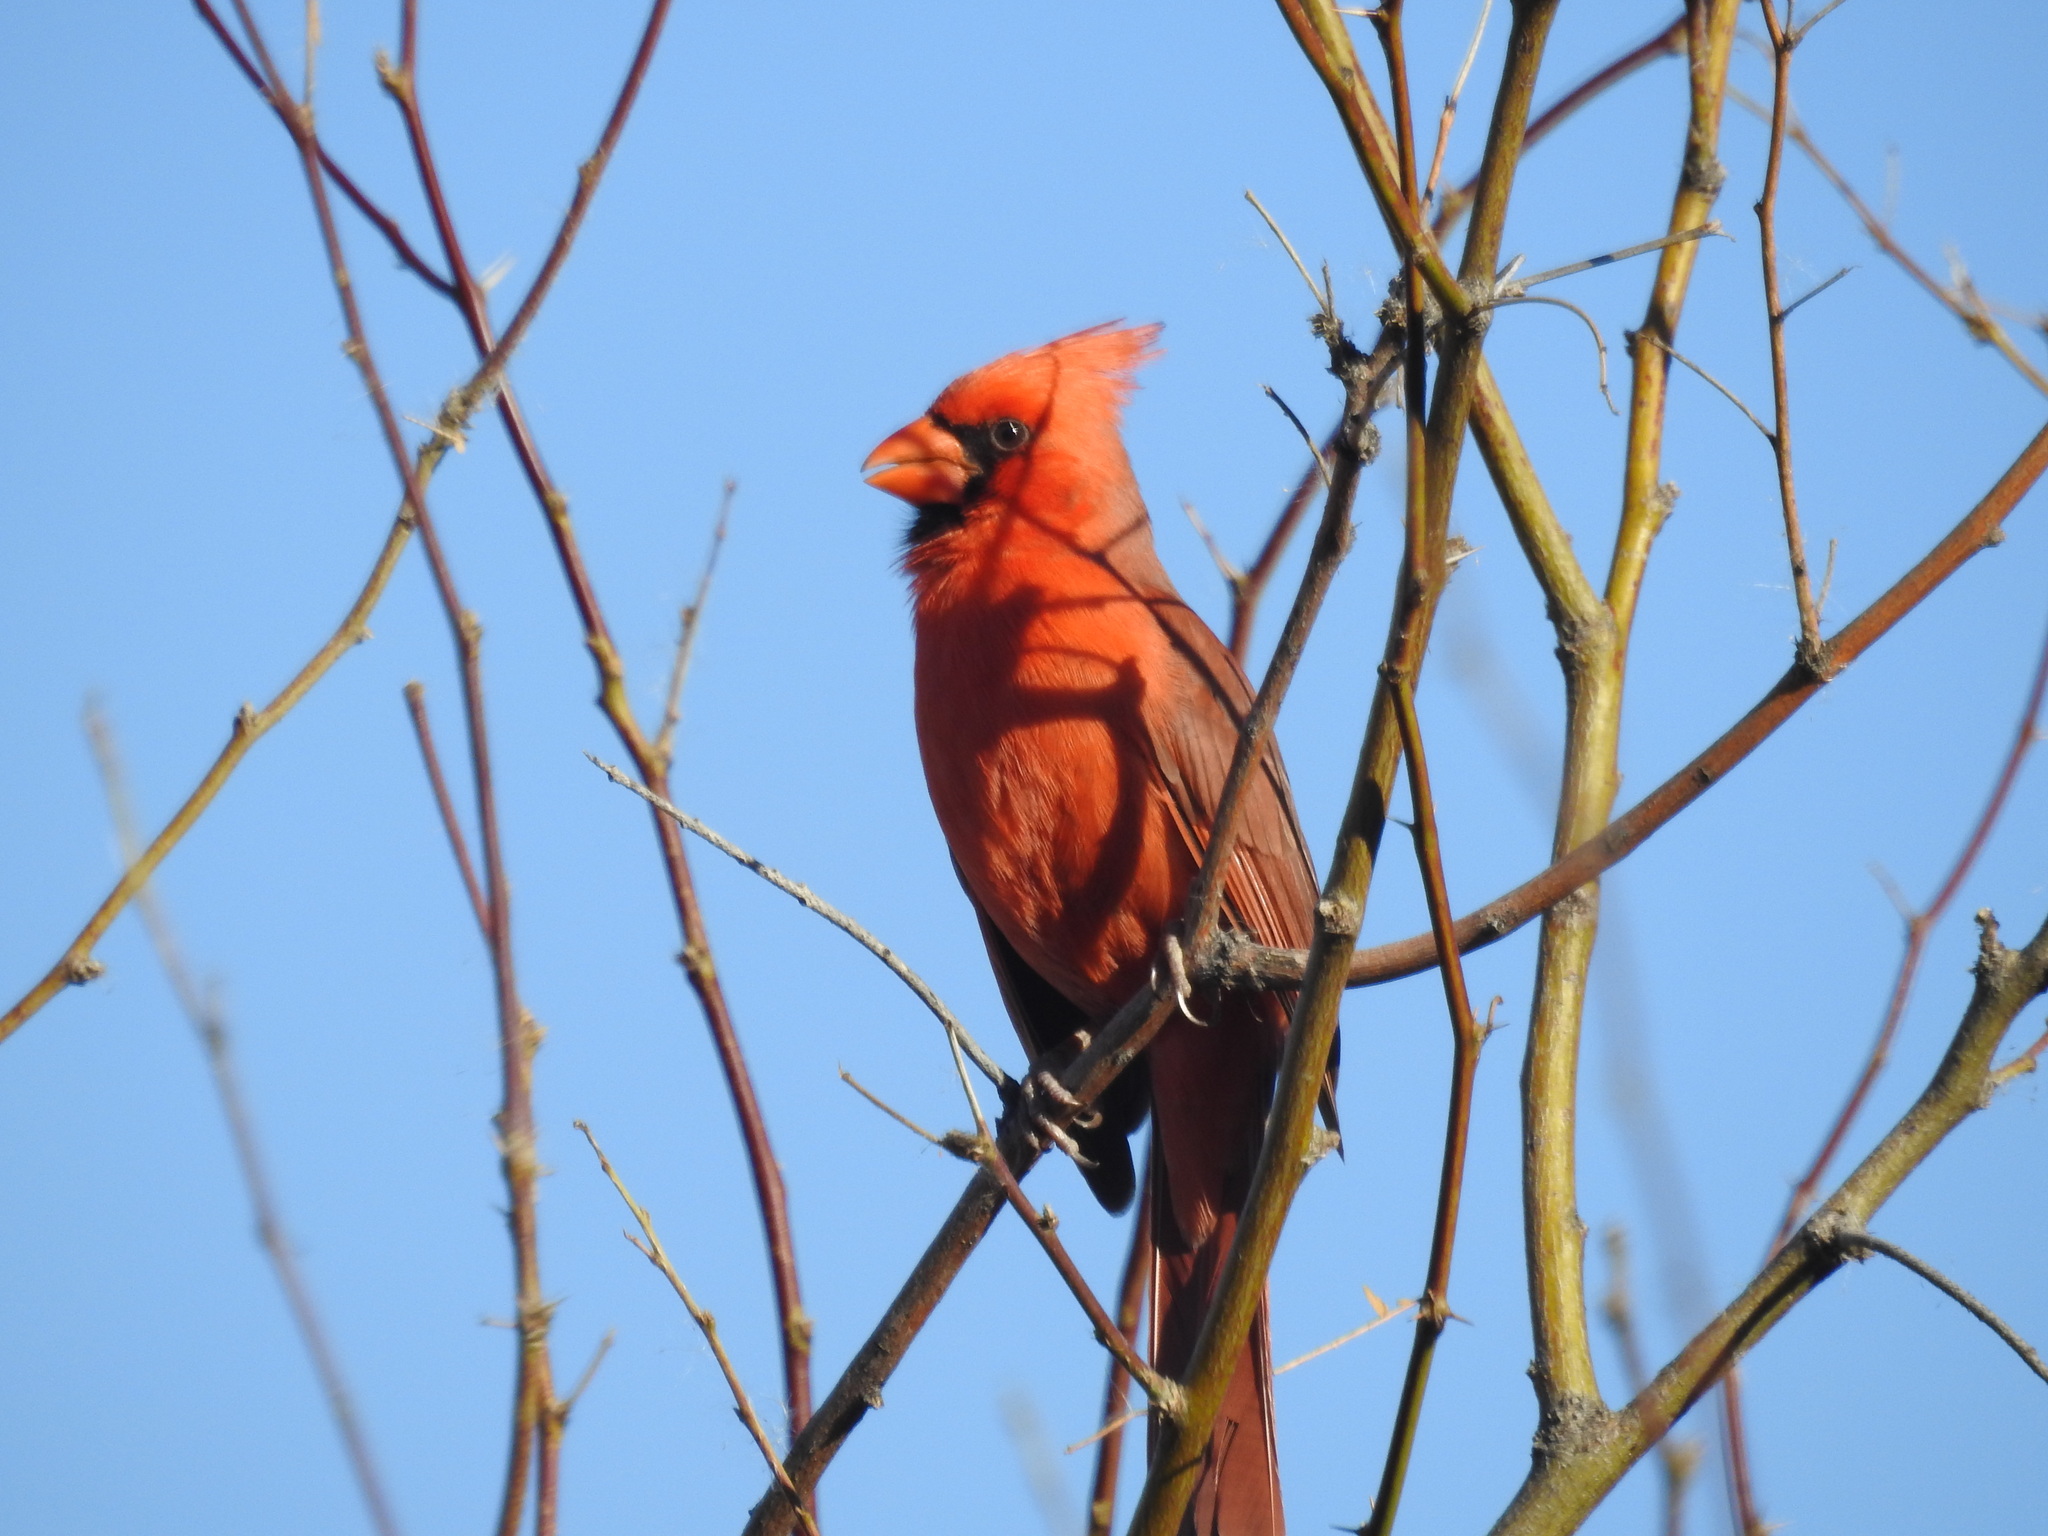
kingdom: Animalia
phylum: Chordata
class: Aves
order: Passeriformes
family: Cardinalidae
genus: Cardinalis
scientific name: Cardinalis cardinalis
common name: Northern cardinal
